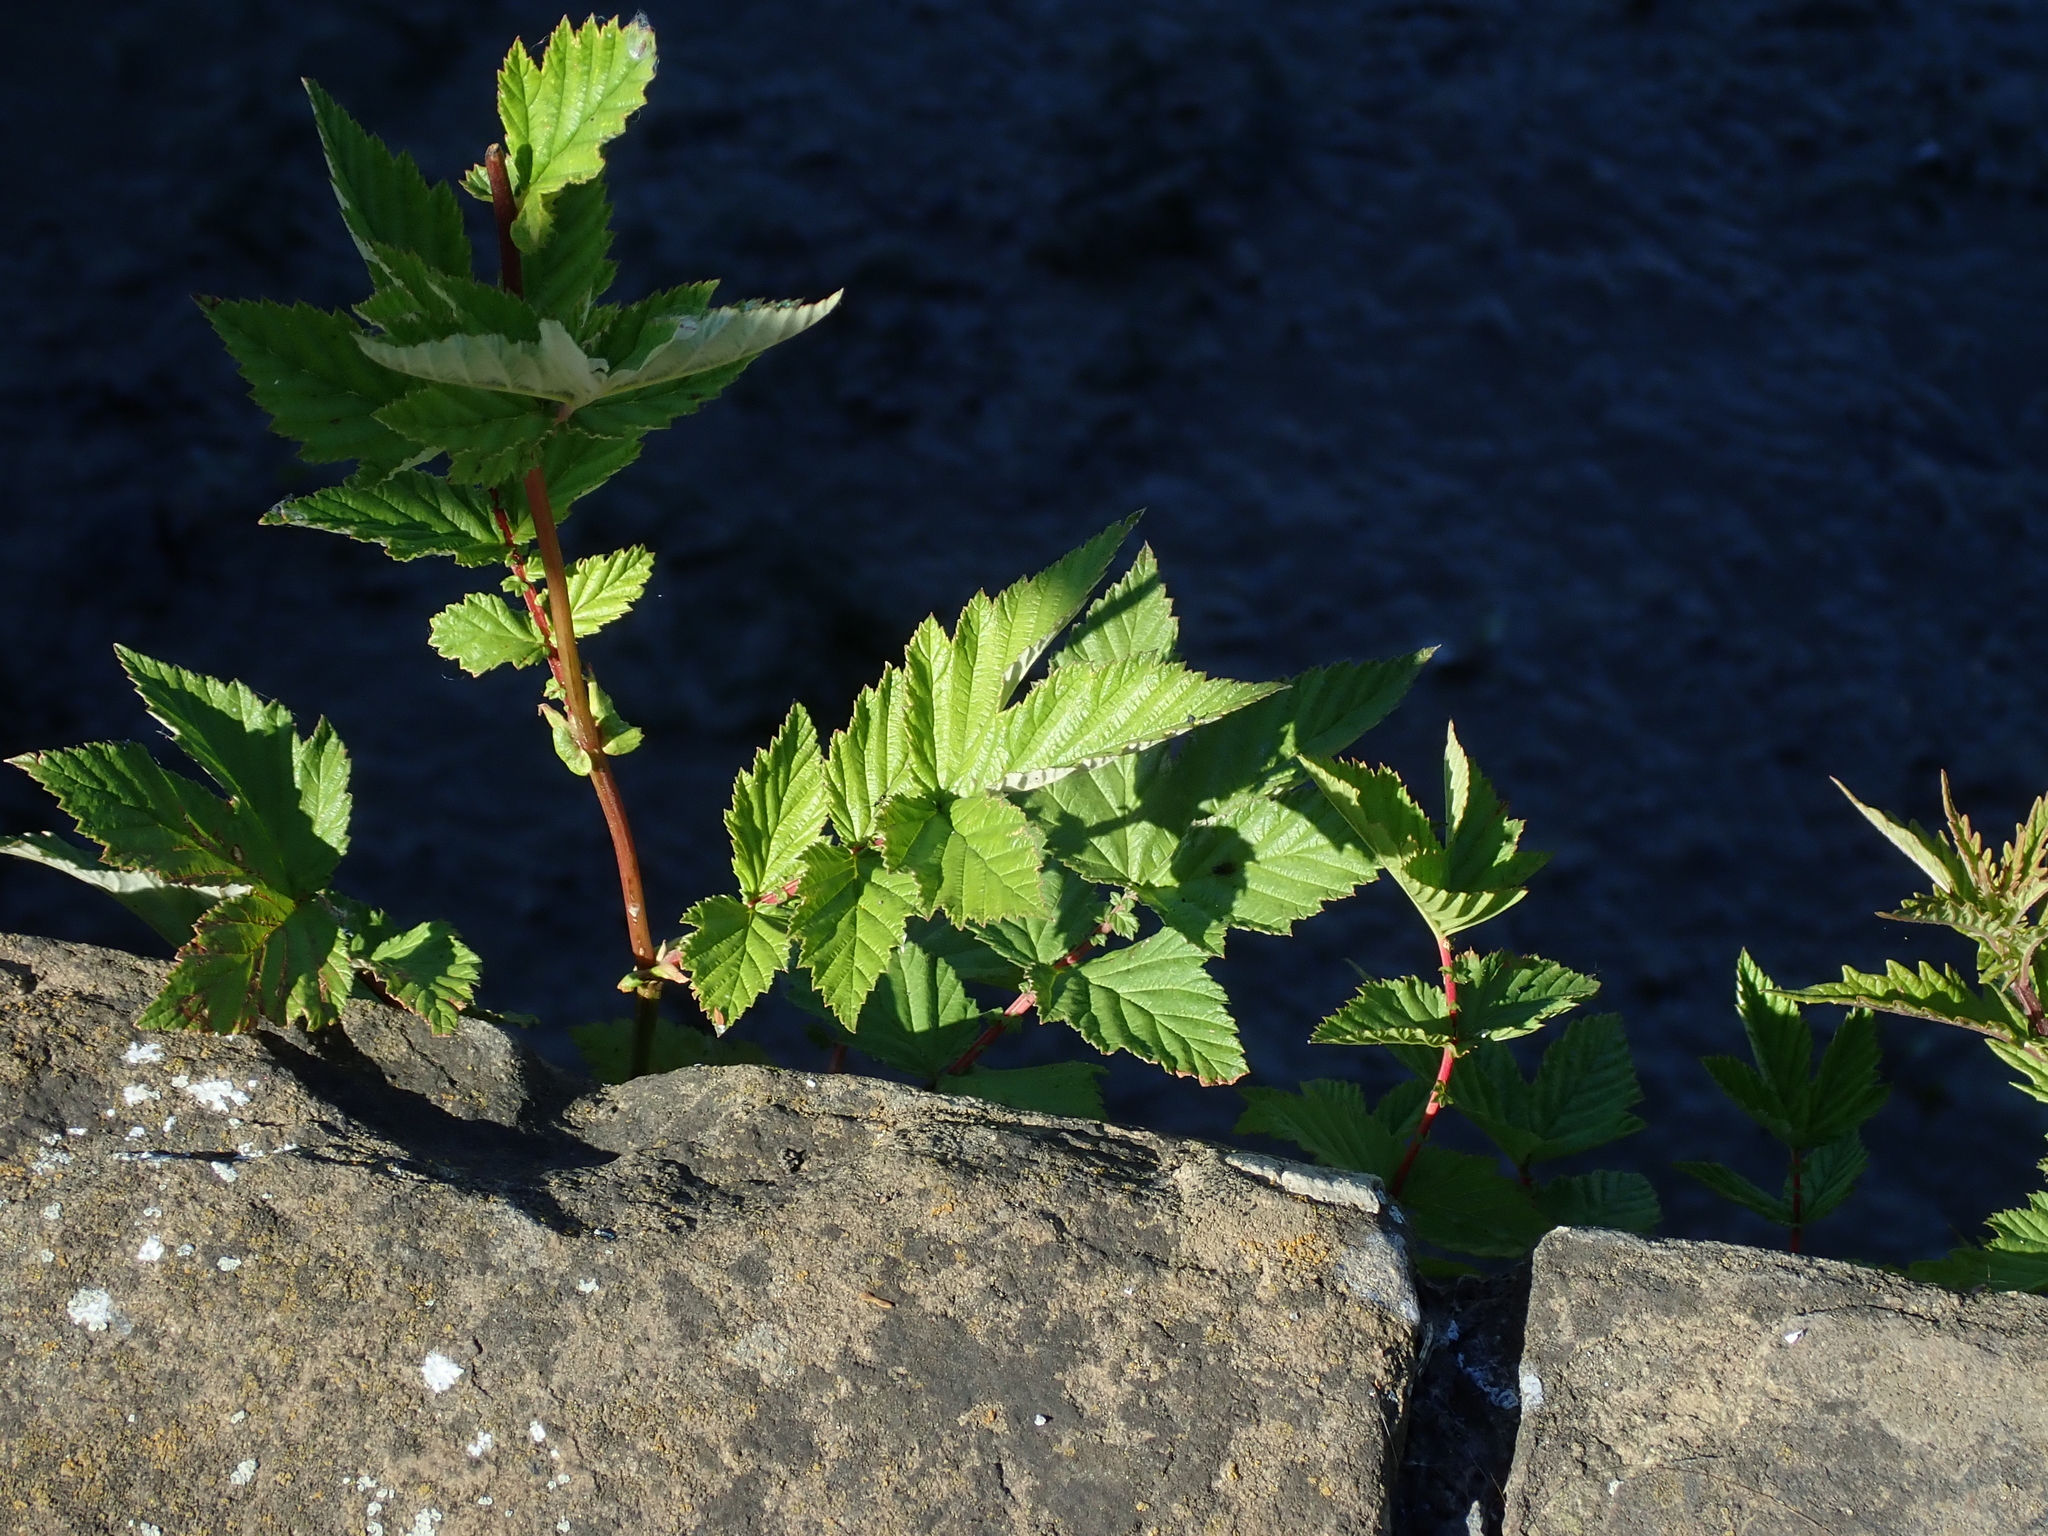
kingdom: Plantae
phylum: Tracheophyta
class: Magnoliopsida
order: Rosales
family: Rosaceae
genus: Filipendula
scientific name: Filipendula ulmaria
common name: Meadowsweet
